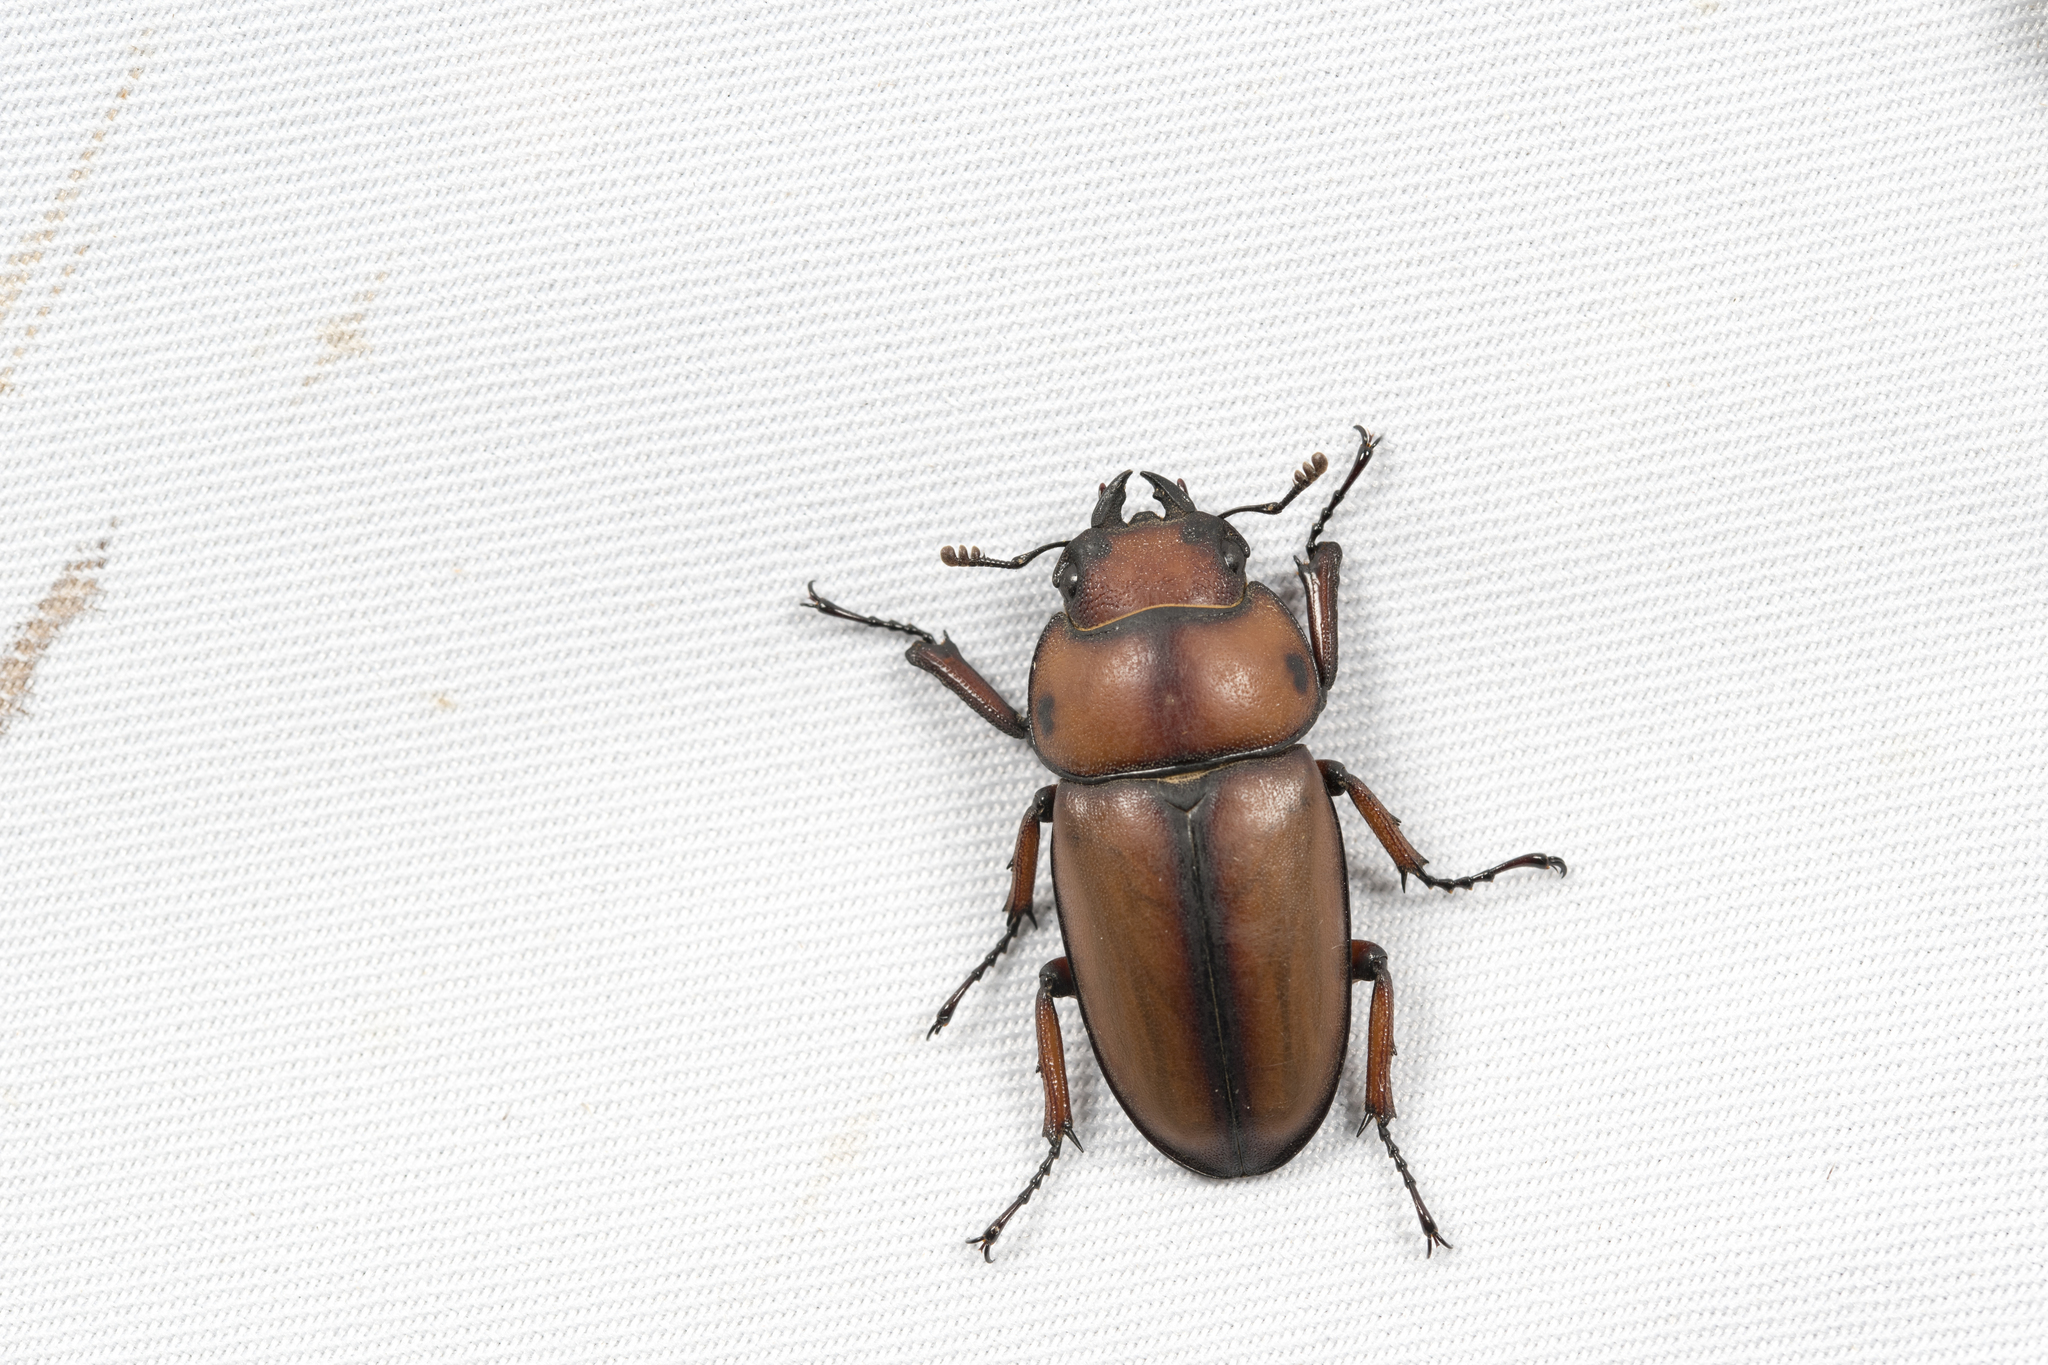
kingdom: Animalia
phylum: Arthropoda
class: Insecta
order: Coleoptera
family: Lucanidae
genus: Prosopocoilus
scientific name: Prosopocoilus astacoides
